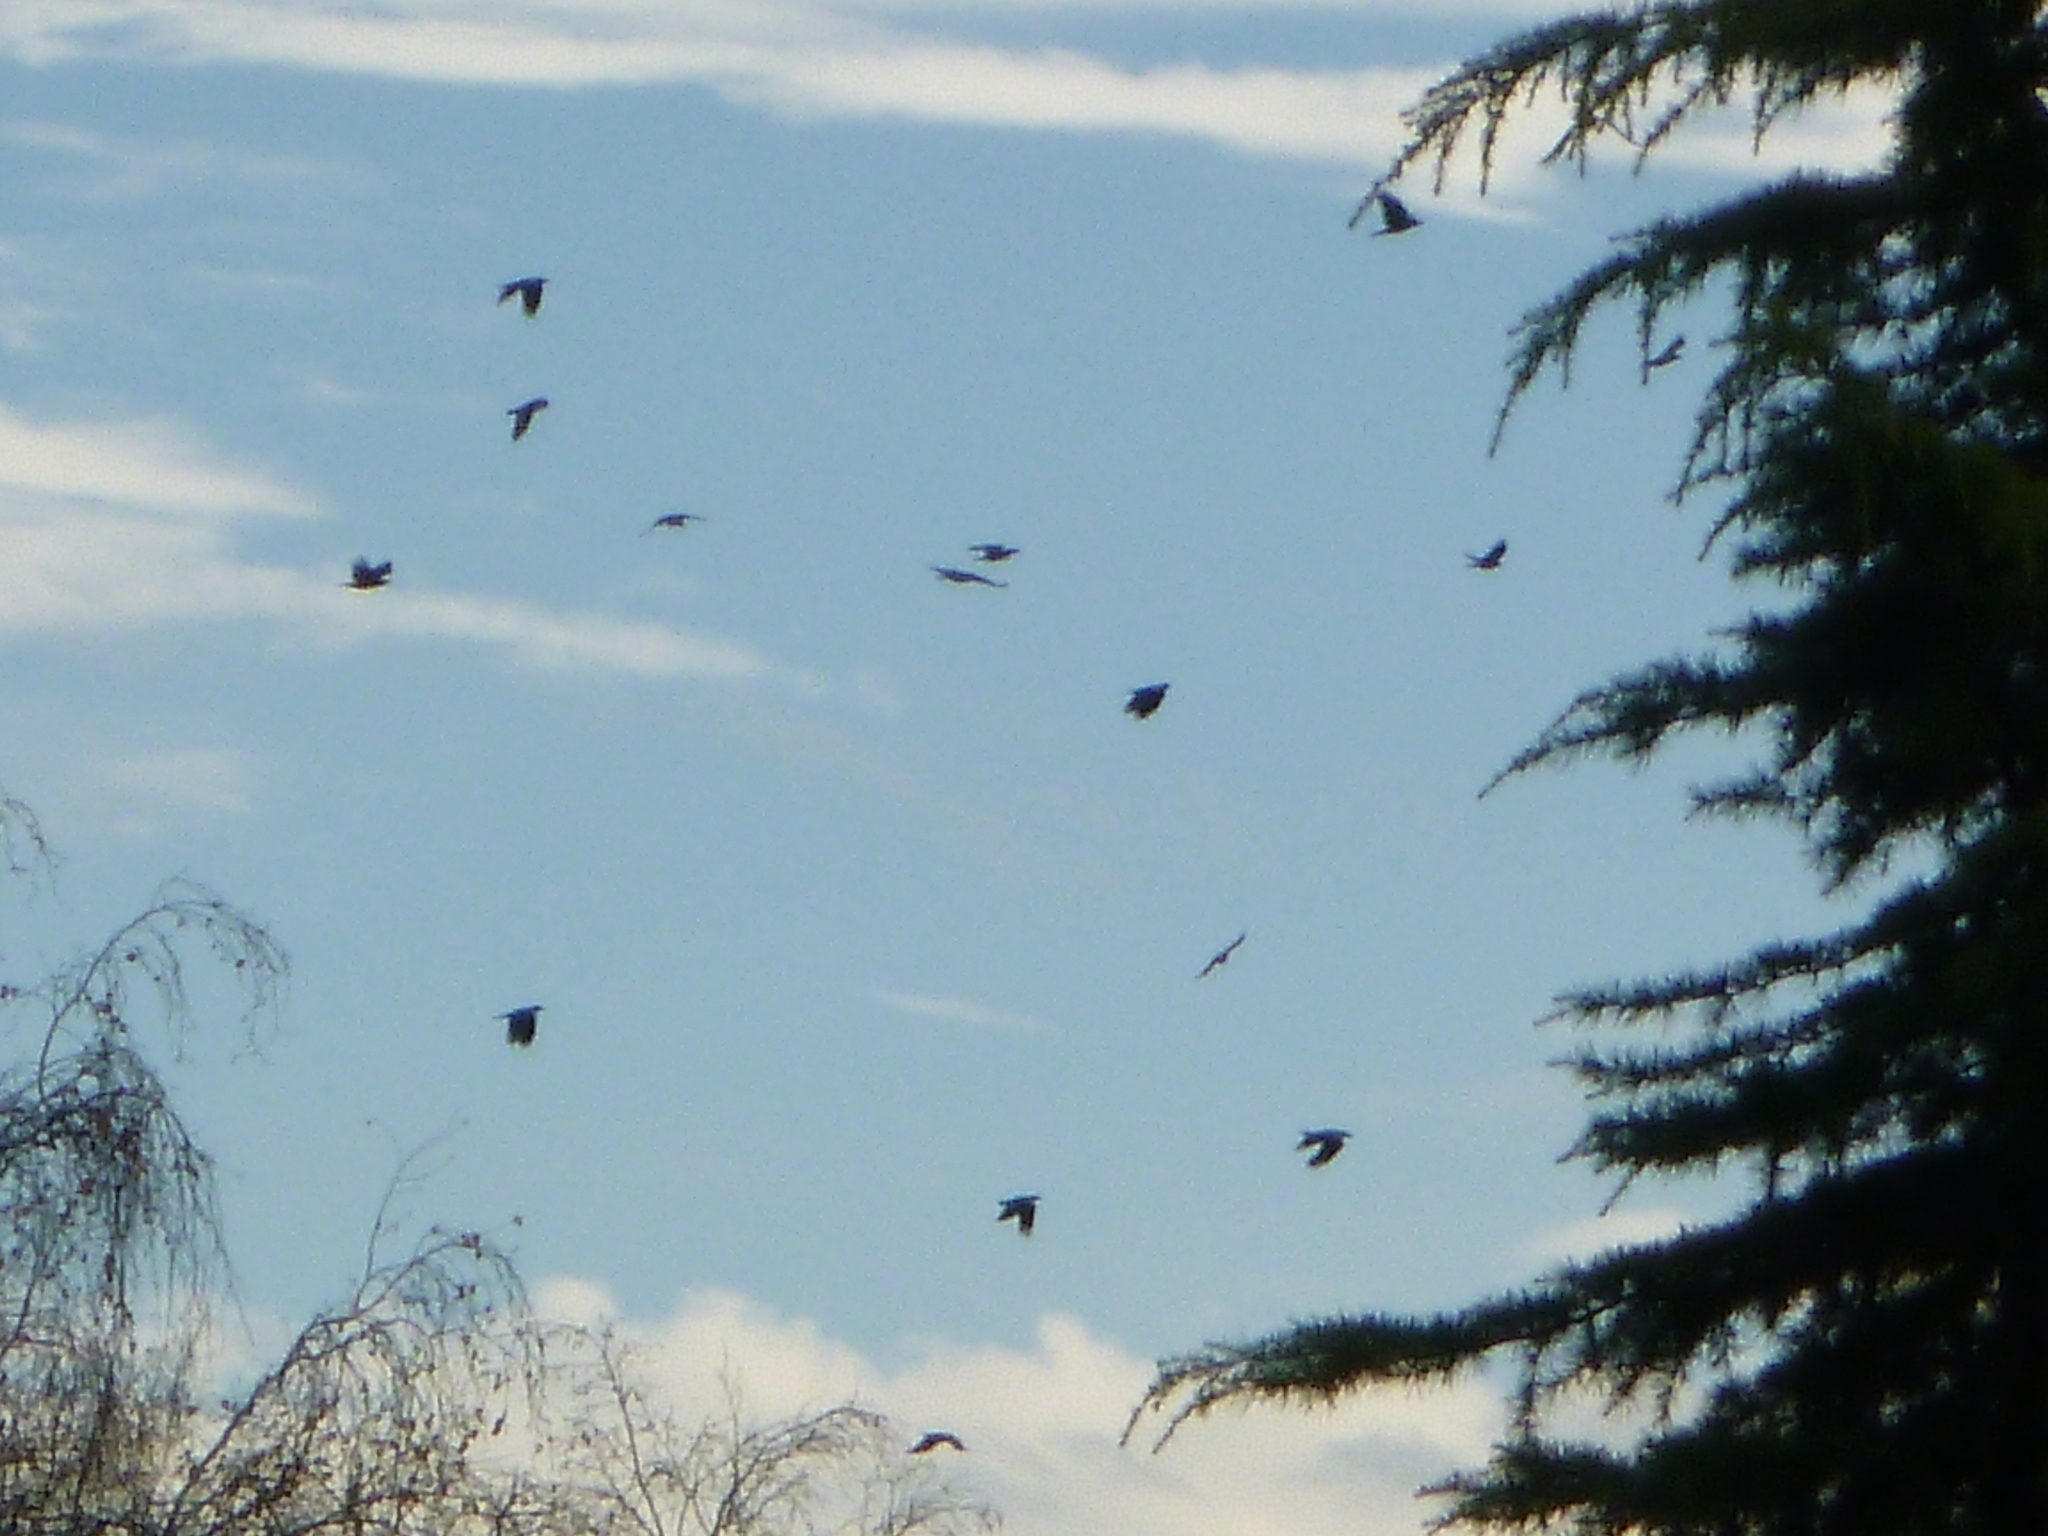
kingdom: Animalia
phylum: Chordata
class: Aves
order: Passeriformes
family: Corvidae
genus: Corvus
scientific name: Corvus cornix
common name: Hooded crow
